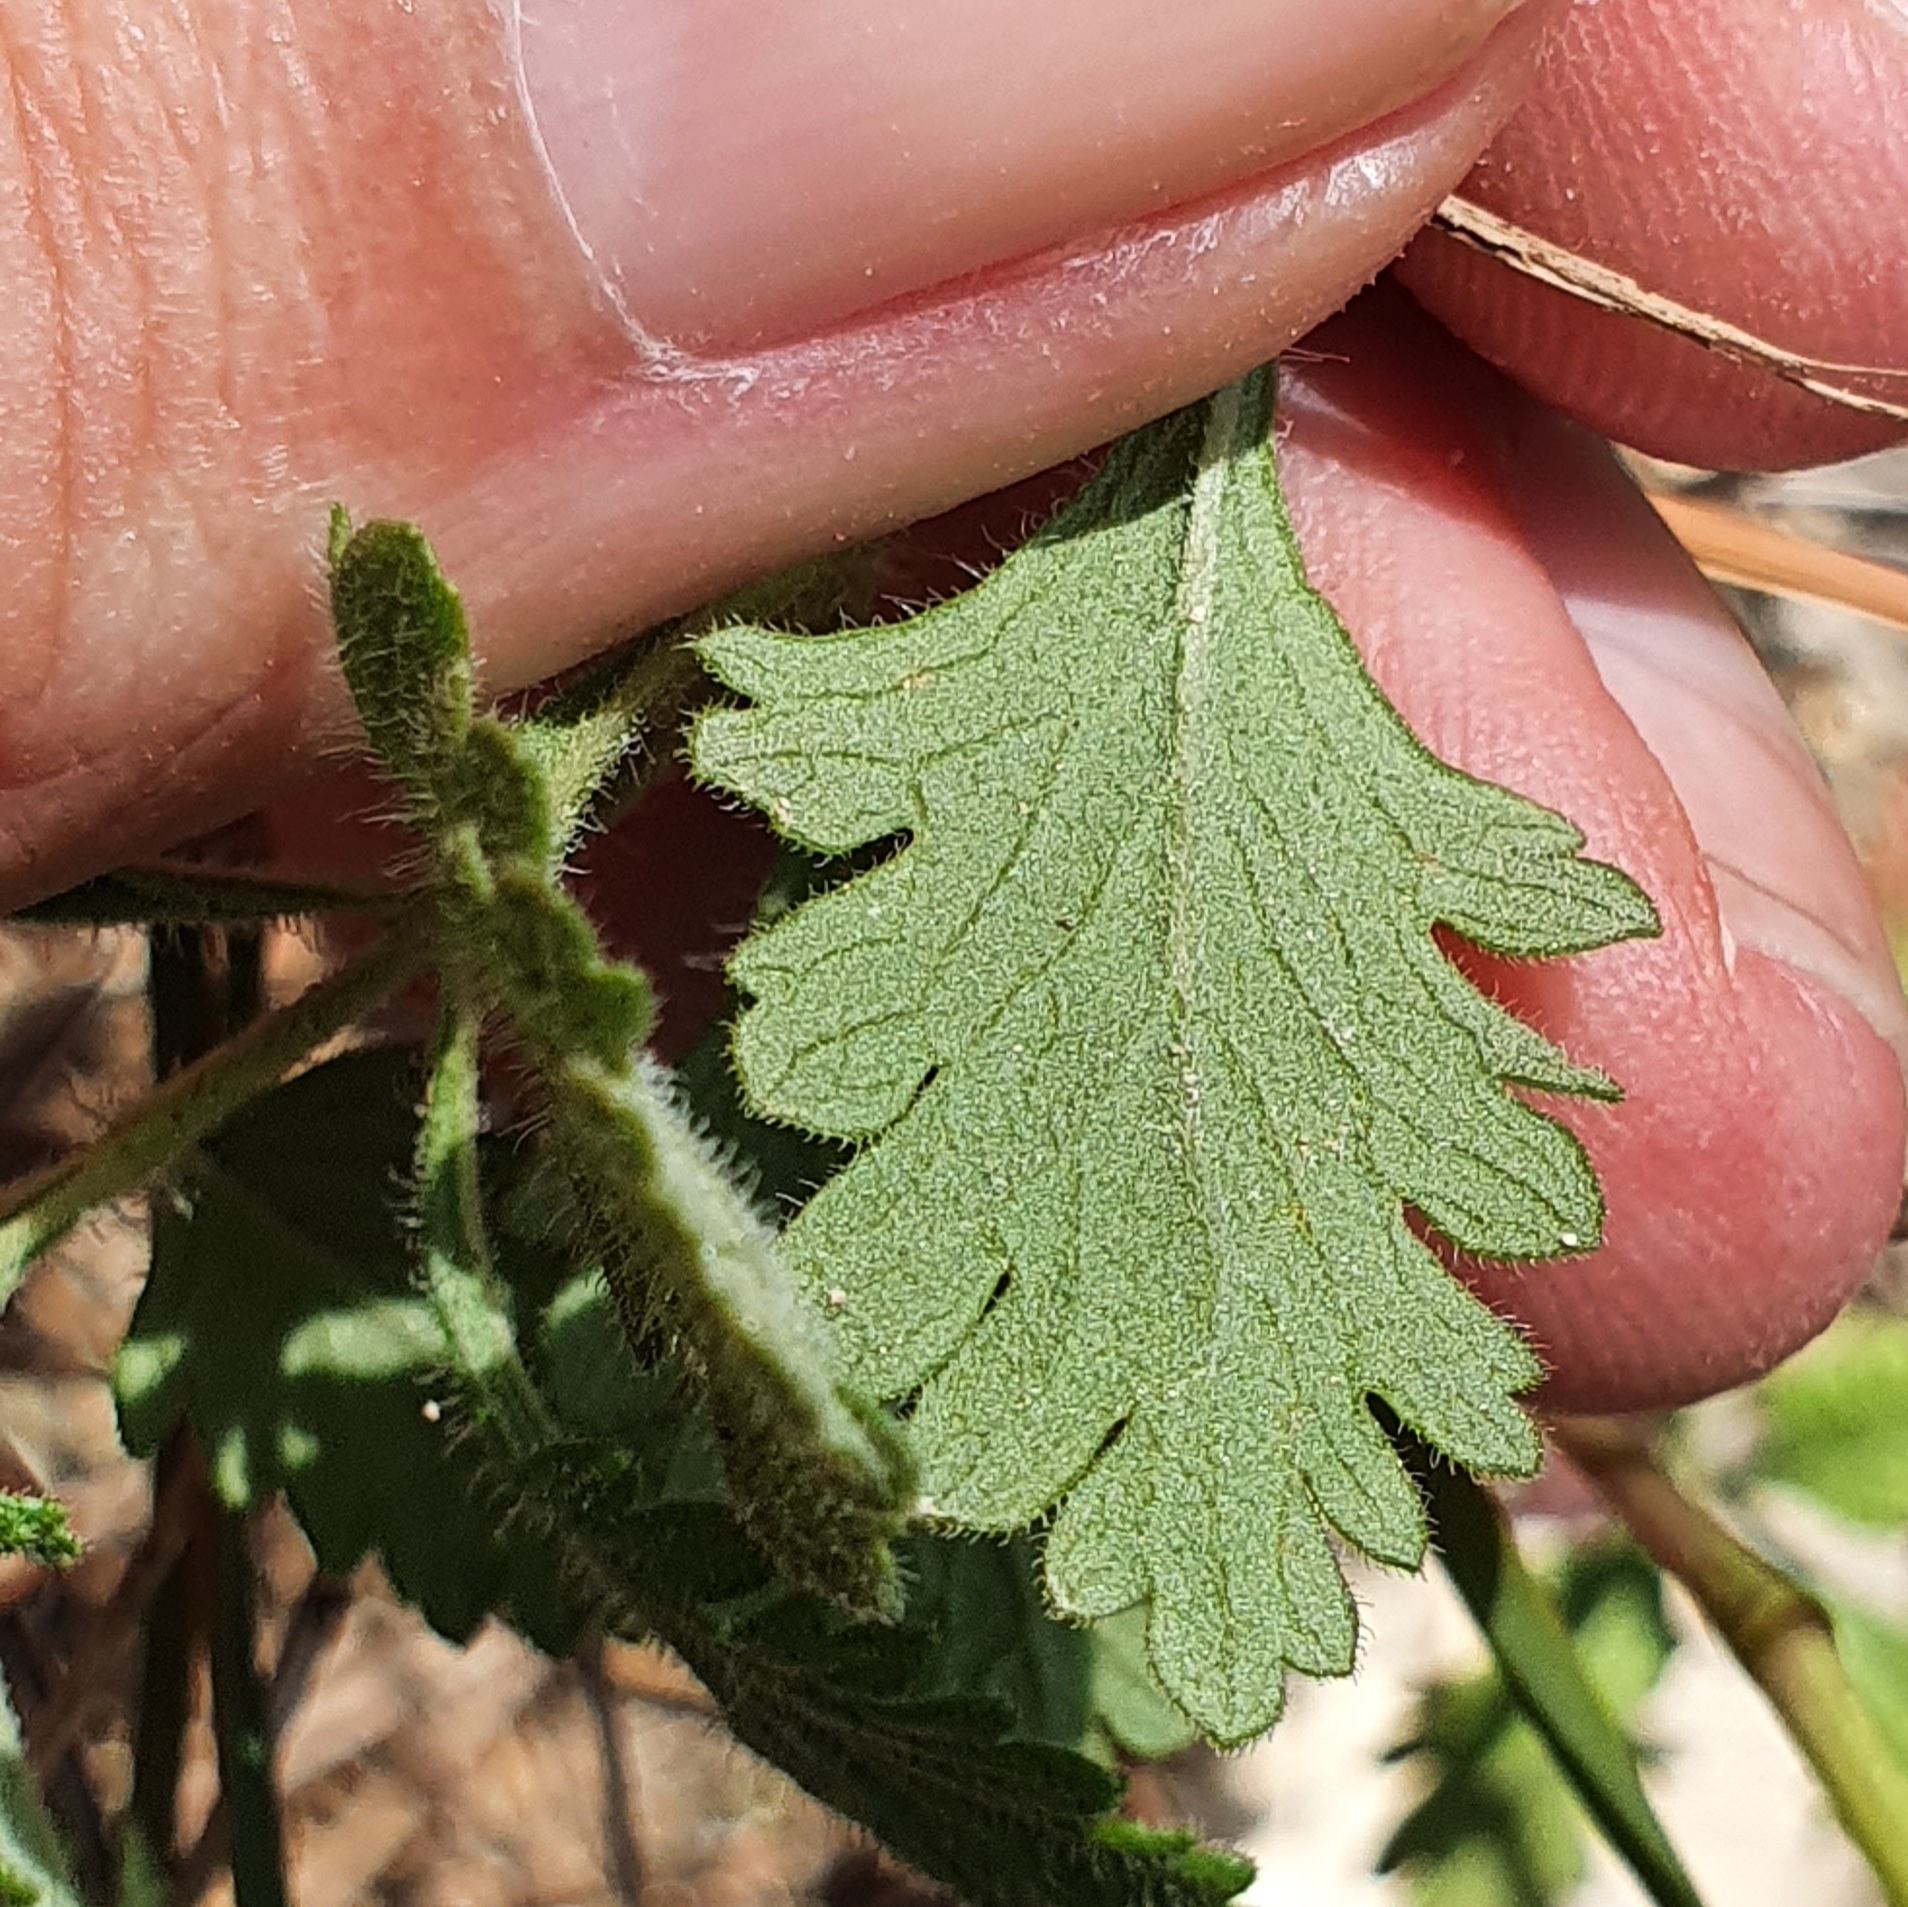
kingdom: Plantae
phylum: Tracheophyta
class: Magnoliopsida
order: Lamiales
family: Lamiaceae
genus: Teucrium
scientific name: Teucrium chamaedrys
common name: Wall germander
